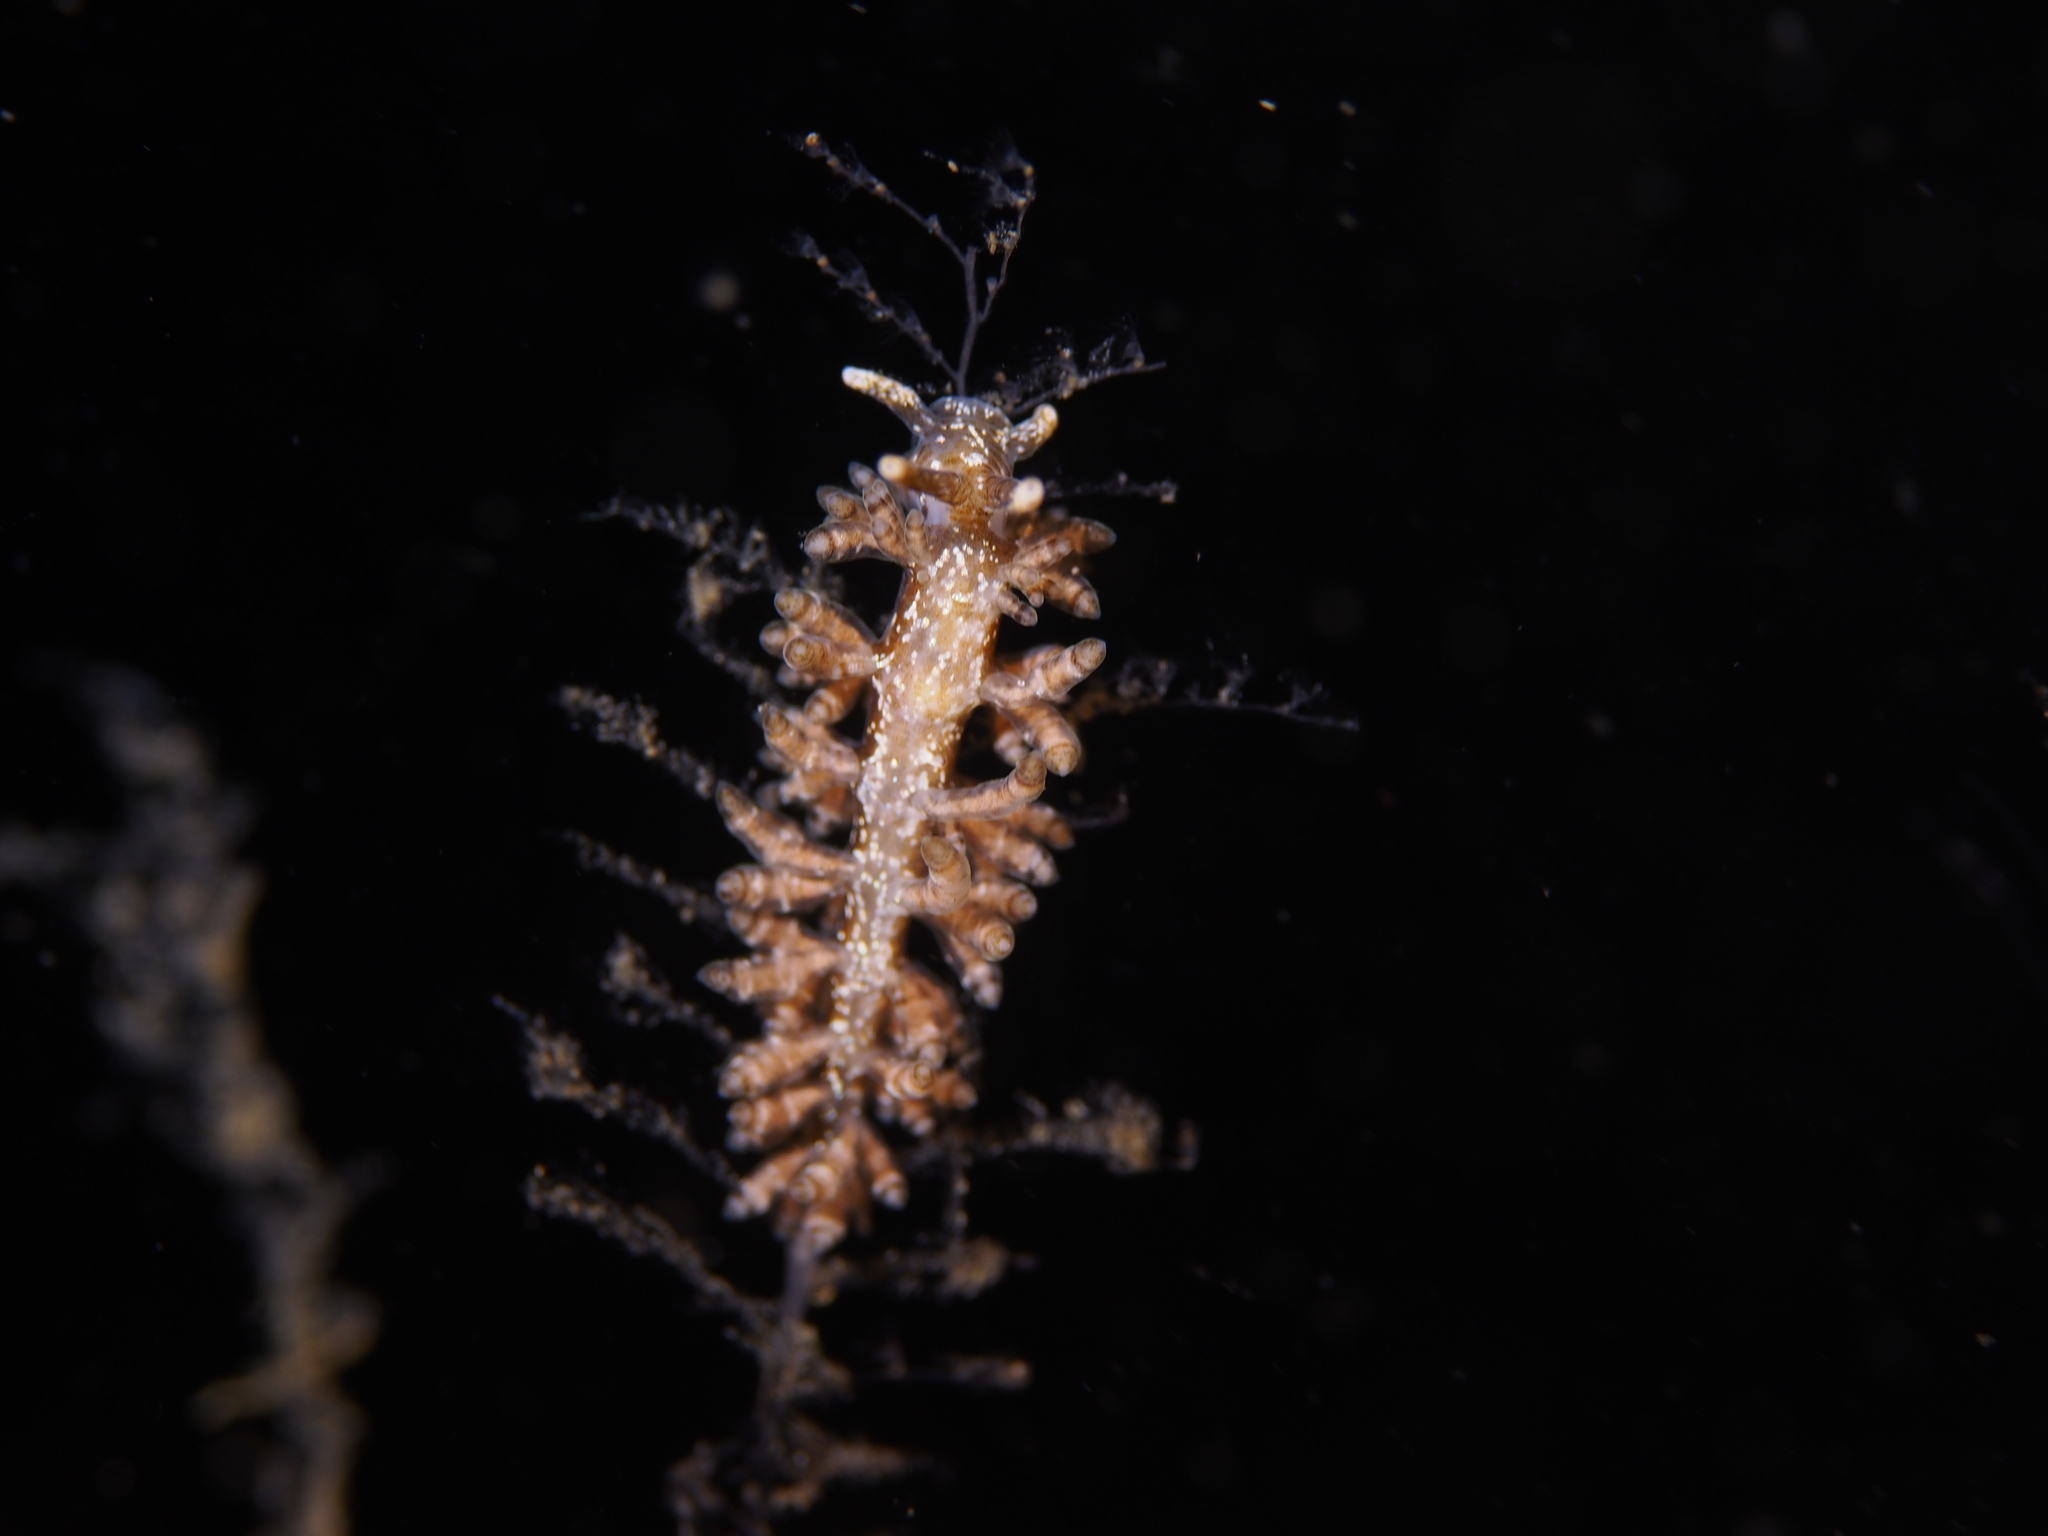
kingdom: Animalia
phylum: Mollusca
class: Gastropoda
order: Nudibranchia
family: Eubranchidae
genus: Eubranchus
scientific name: Eubranchus vittatus
